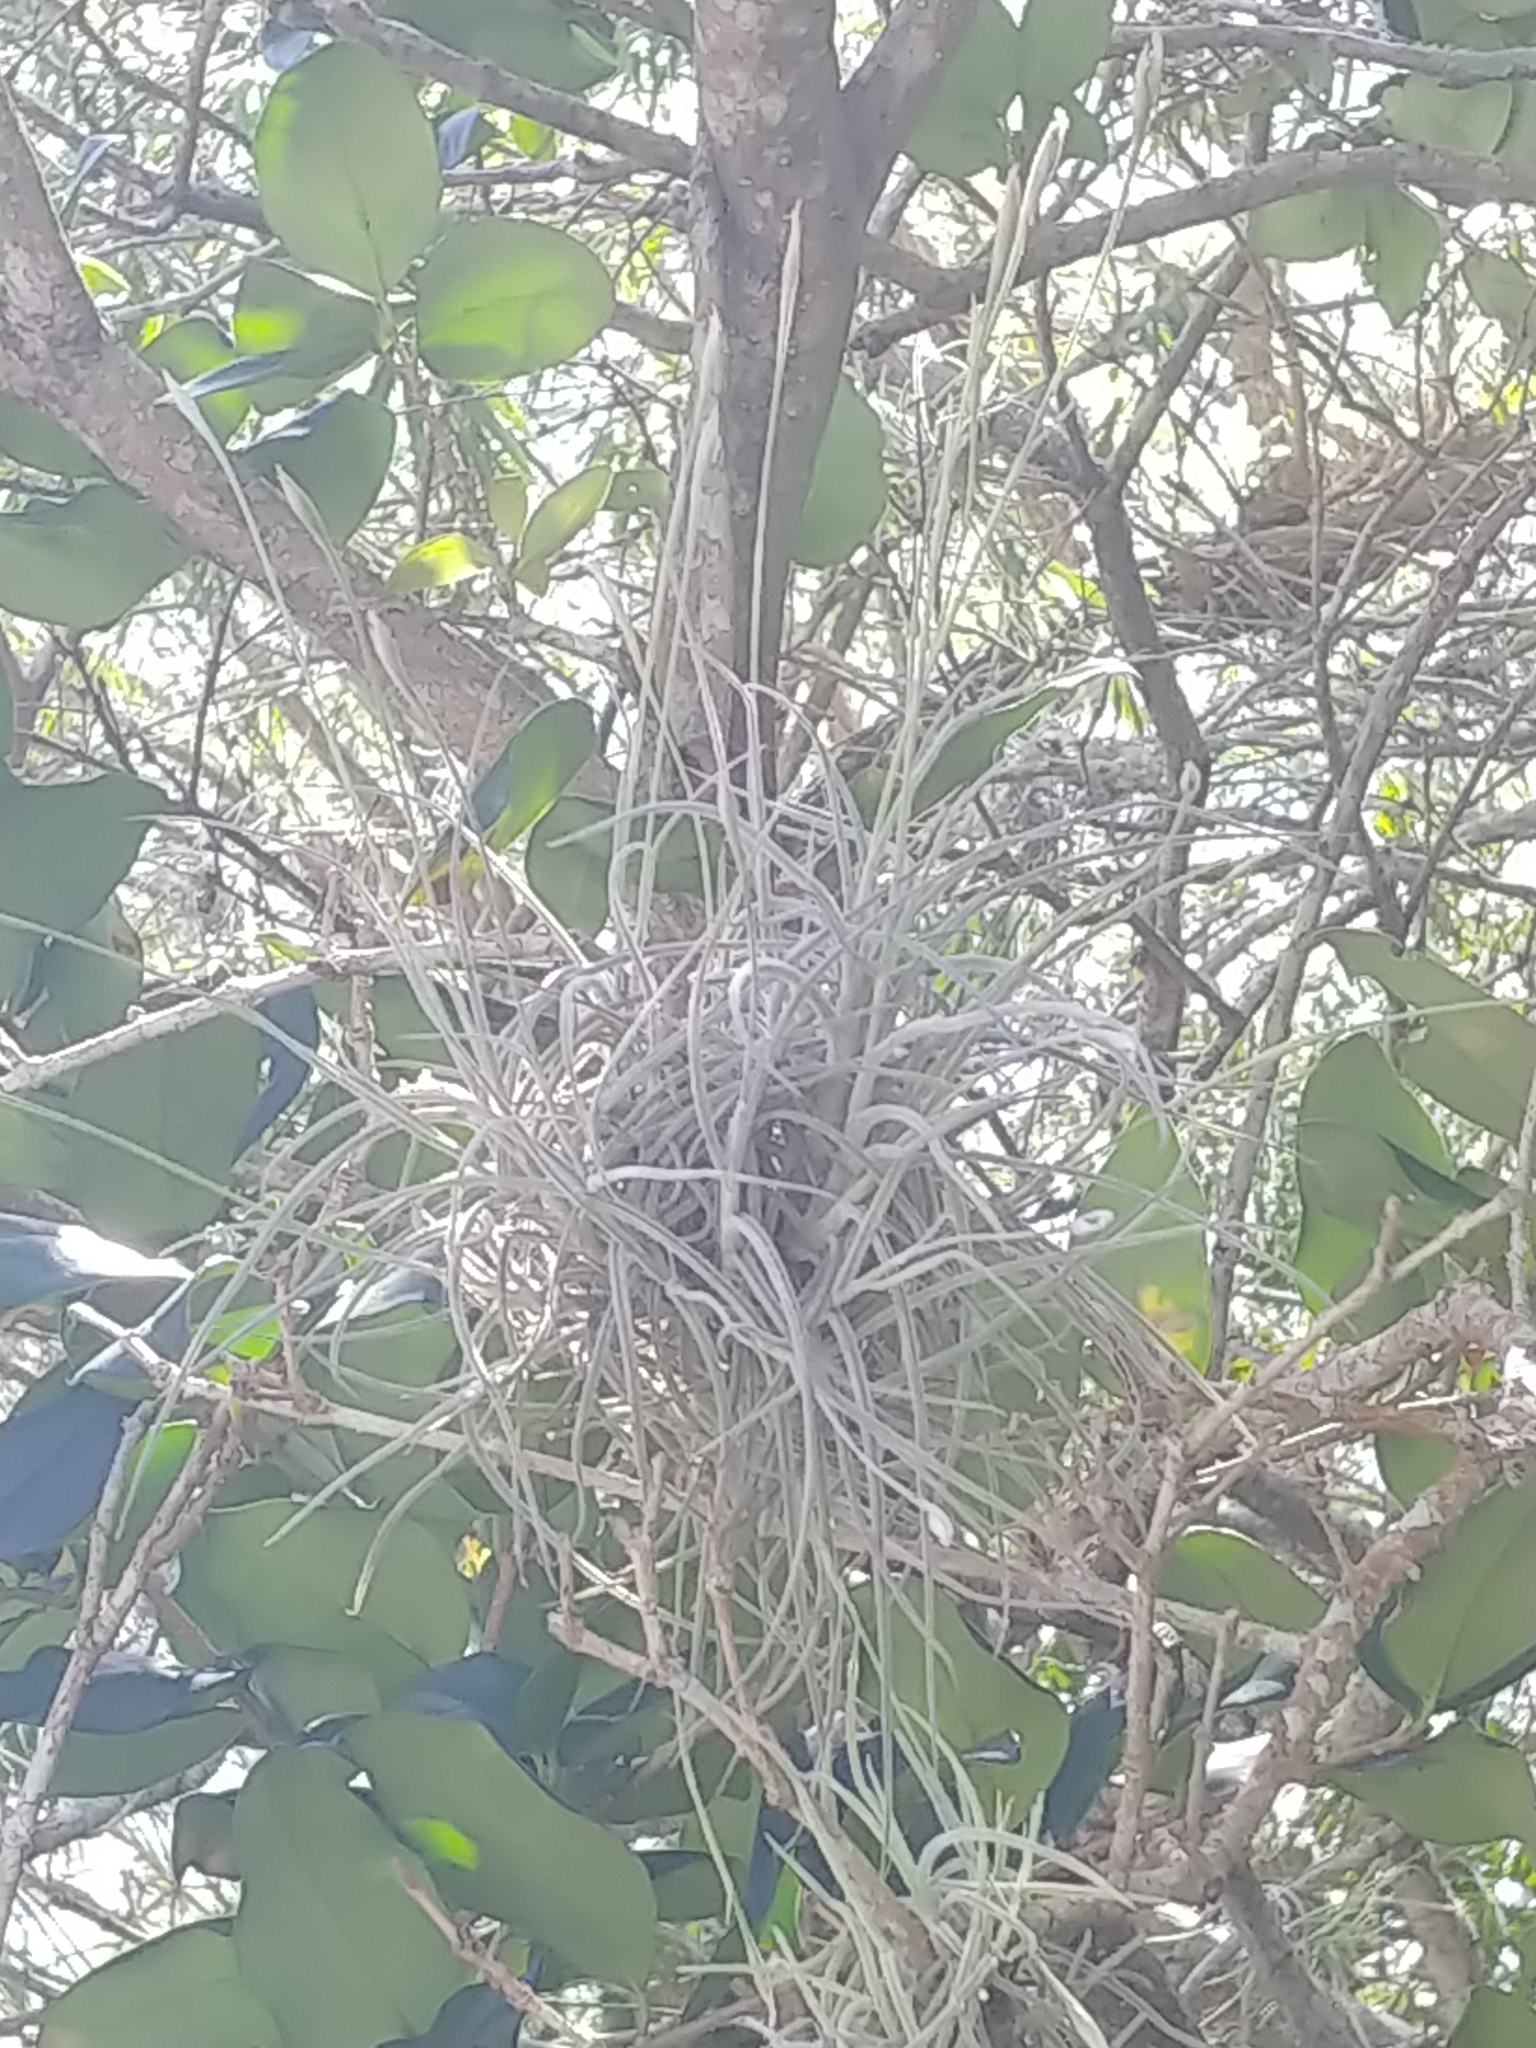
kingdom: Plantae
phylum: Tracheophyta
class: Liliopsida
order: Poales
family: Bromeliaceae
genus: Tillandsia
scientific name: Tillandsia recurvata
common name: Small ballmoss
